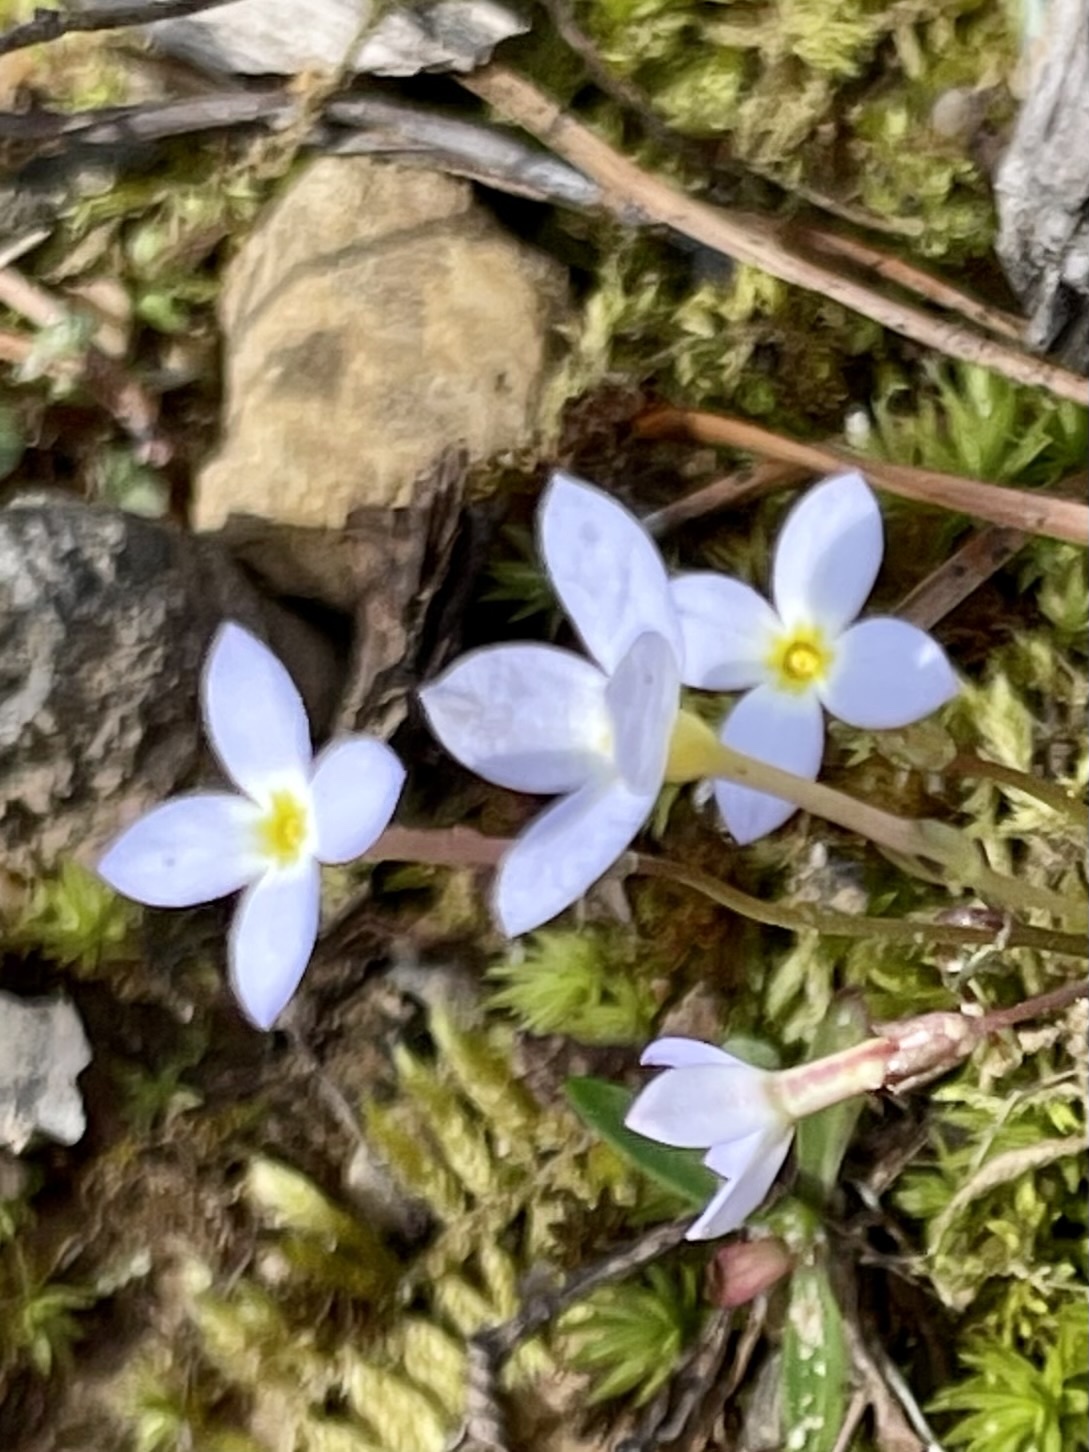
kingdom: Plantae
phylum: Tracheophyta
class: Magnoliopsida
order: Gentianales
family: Rubiaceae
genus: Houstonia
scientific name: Houstonia caerulea
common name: Bluets
